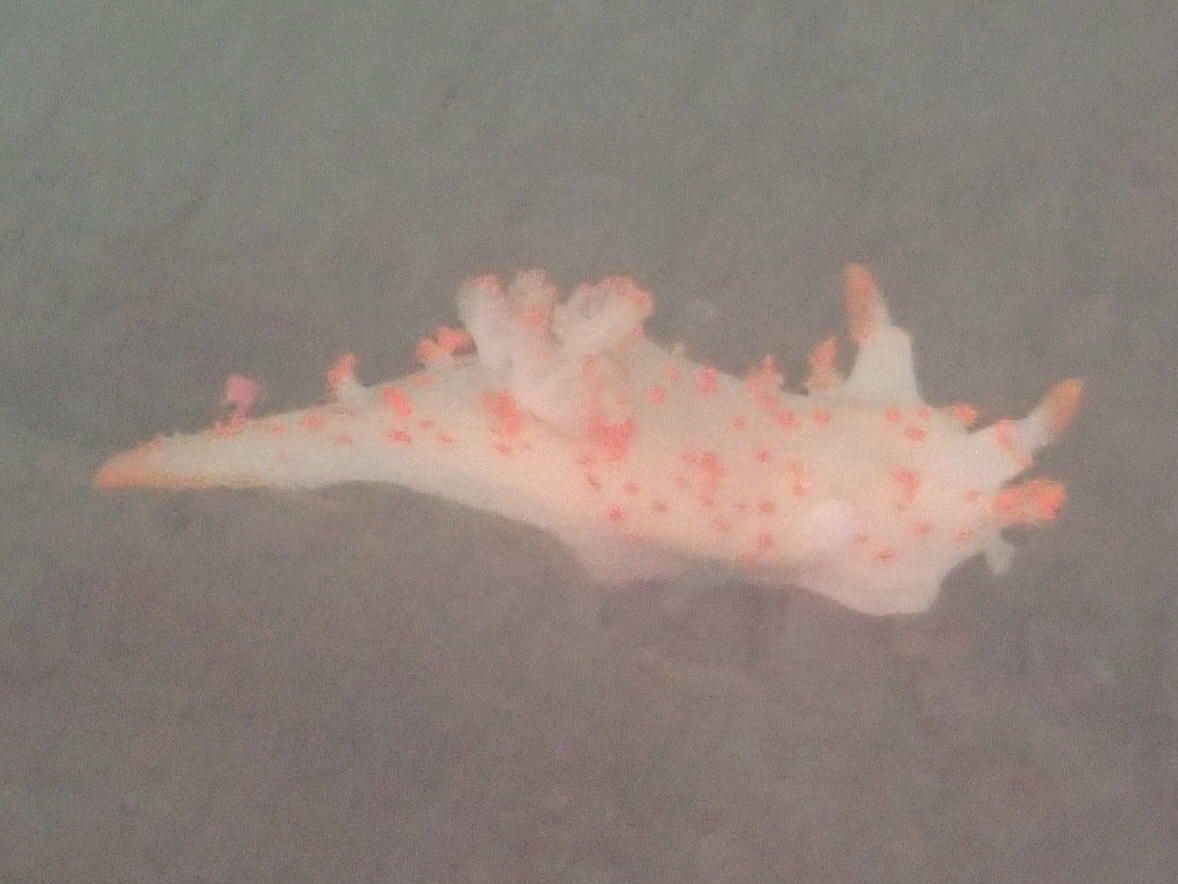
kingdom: Animalia
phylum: Mollusca
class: Gastropoda
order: Nudibranchia
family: Polyceridae
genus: Triopha
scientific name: Triopha modesta
